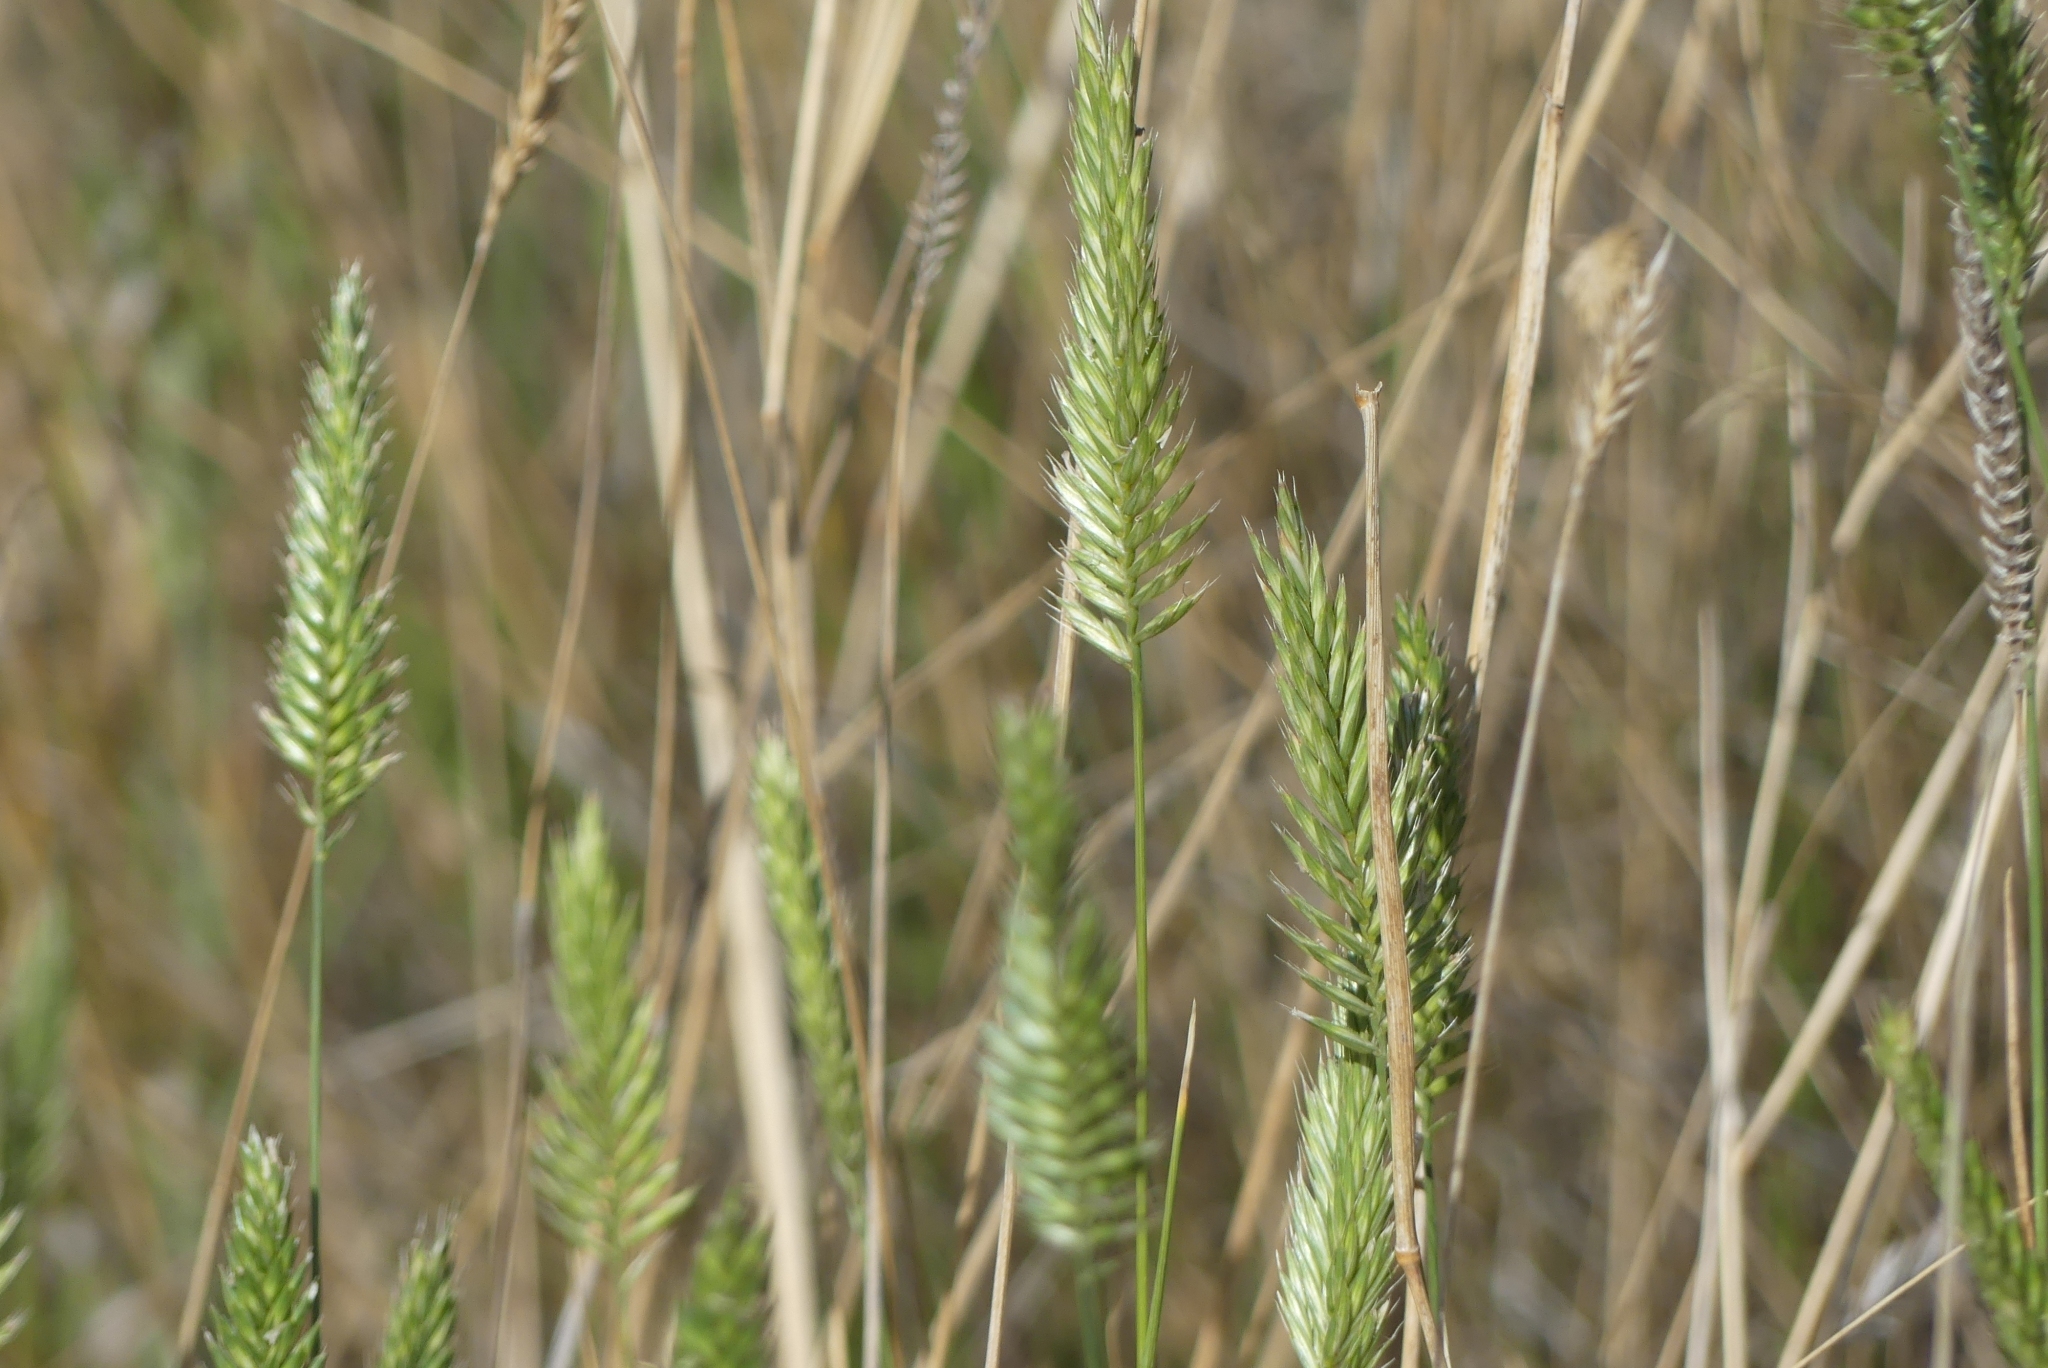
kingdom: Plantae
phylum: Tracheophyta
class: Liliopsida
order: Poales
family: Poaceae
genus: Agropyron
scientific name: Agropyron cristatum
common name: Crested wheatgrass
